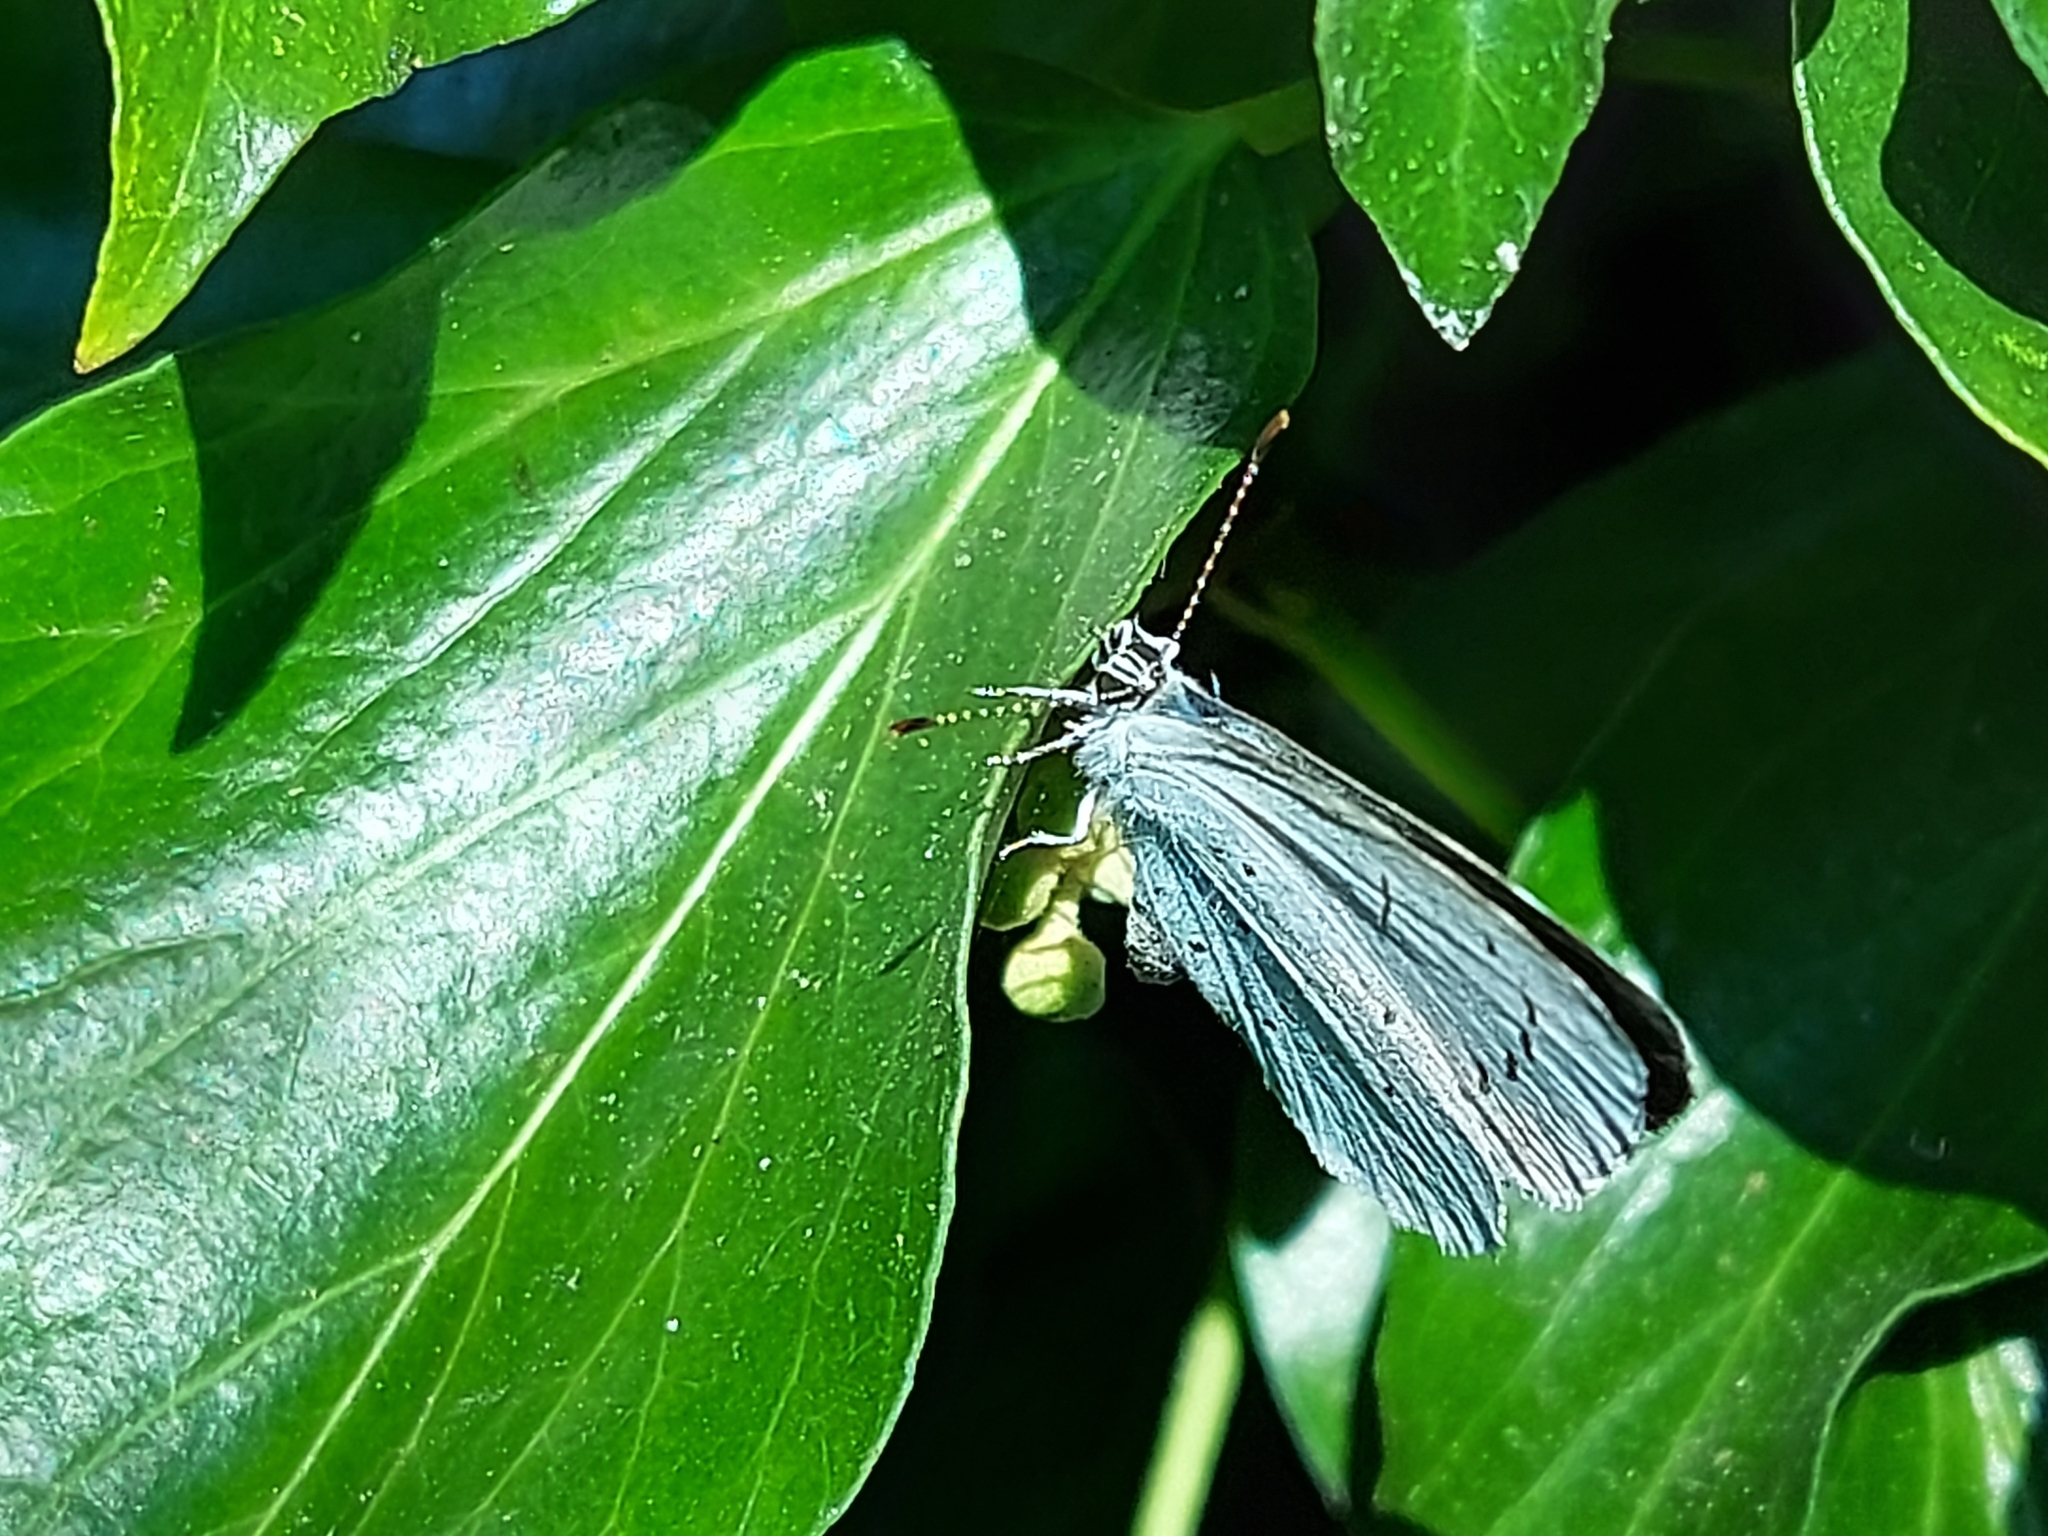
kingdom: Animalia
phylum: Arthropoda
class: Insecta
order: Lepidoptera
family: Lycaenidae
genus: Celastrina
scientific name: Celastrina argiolus
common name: Holly blue
